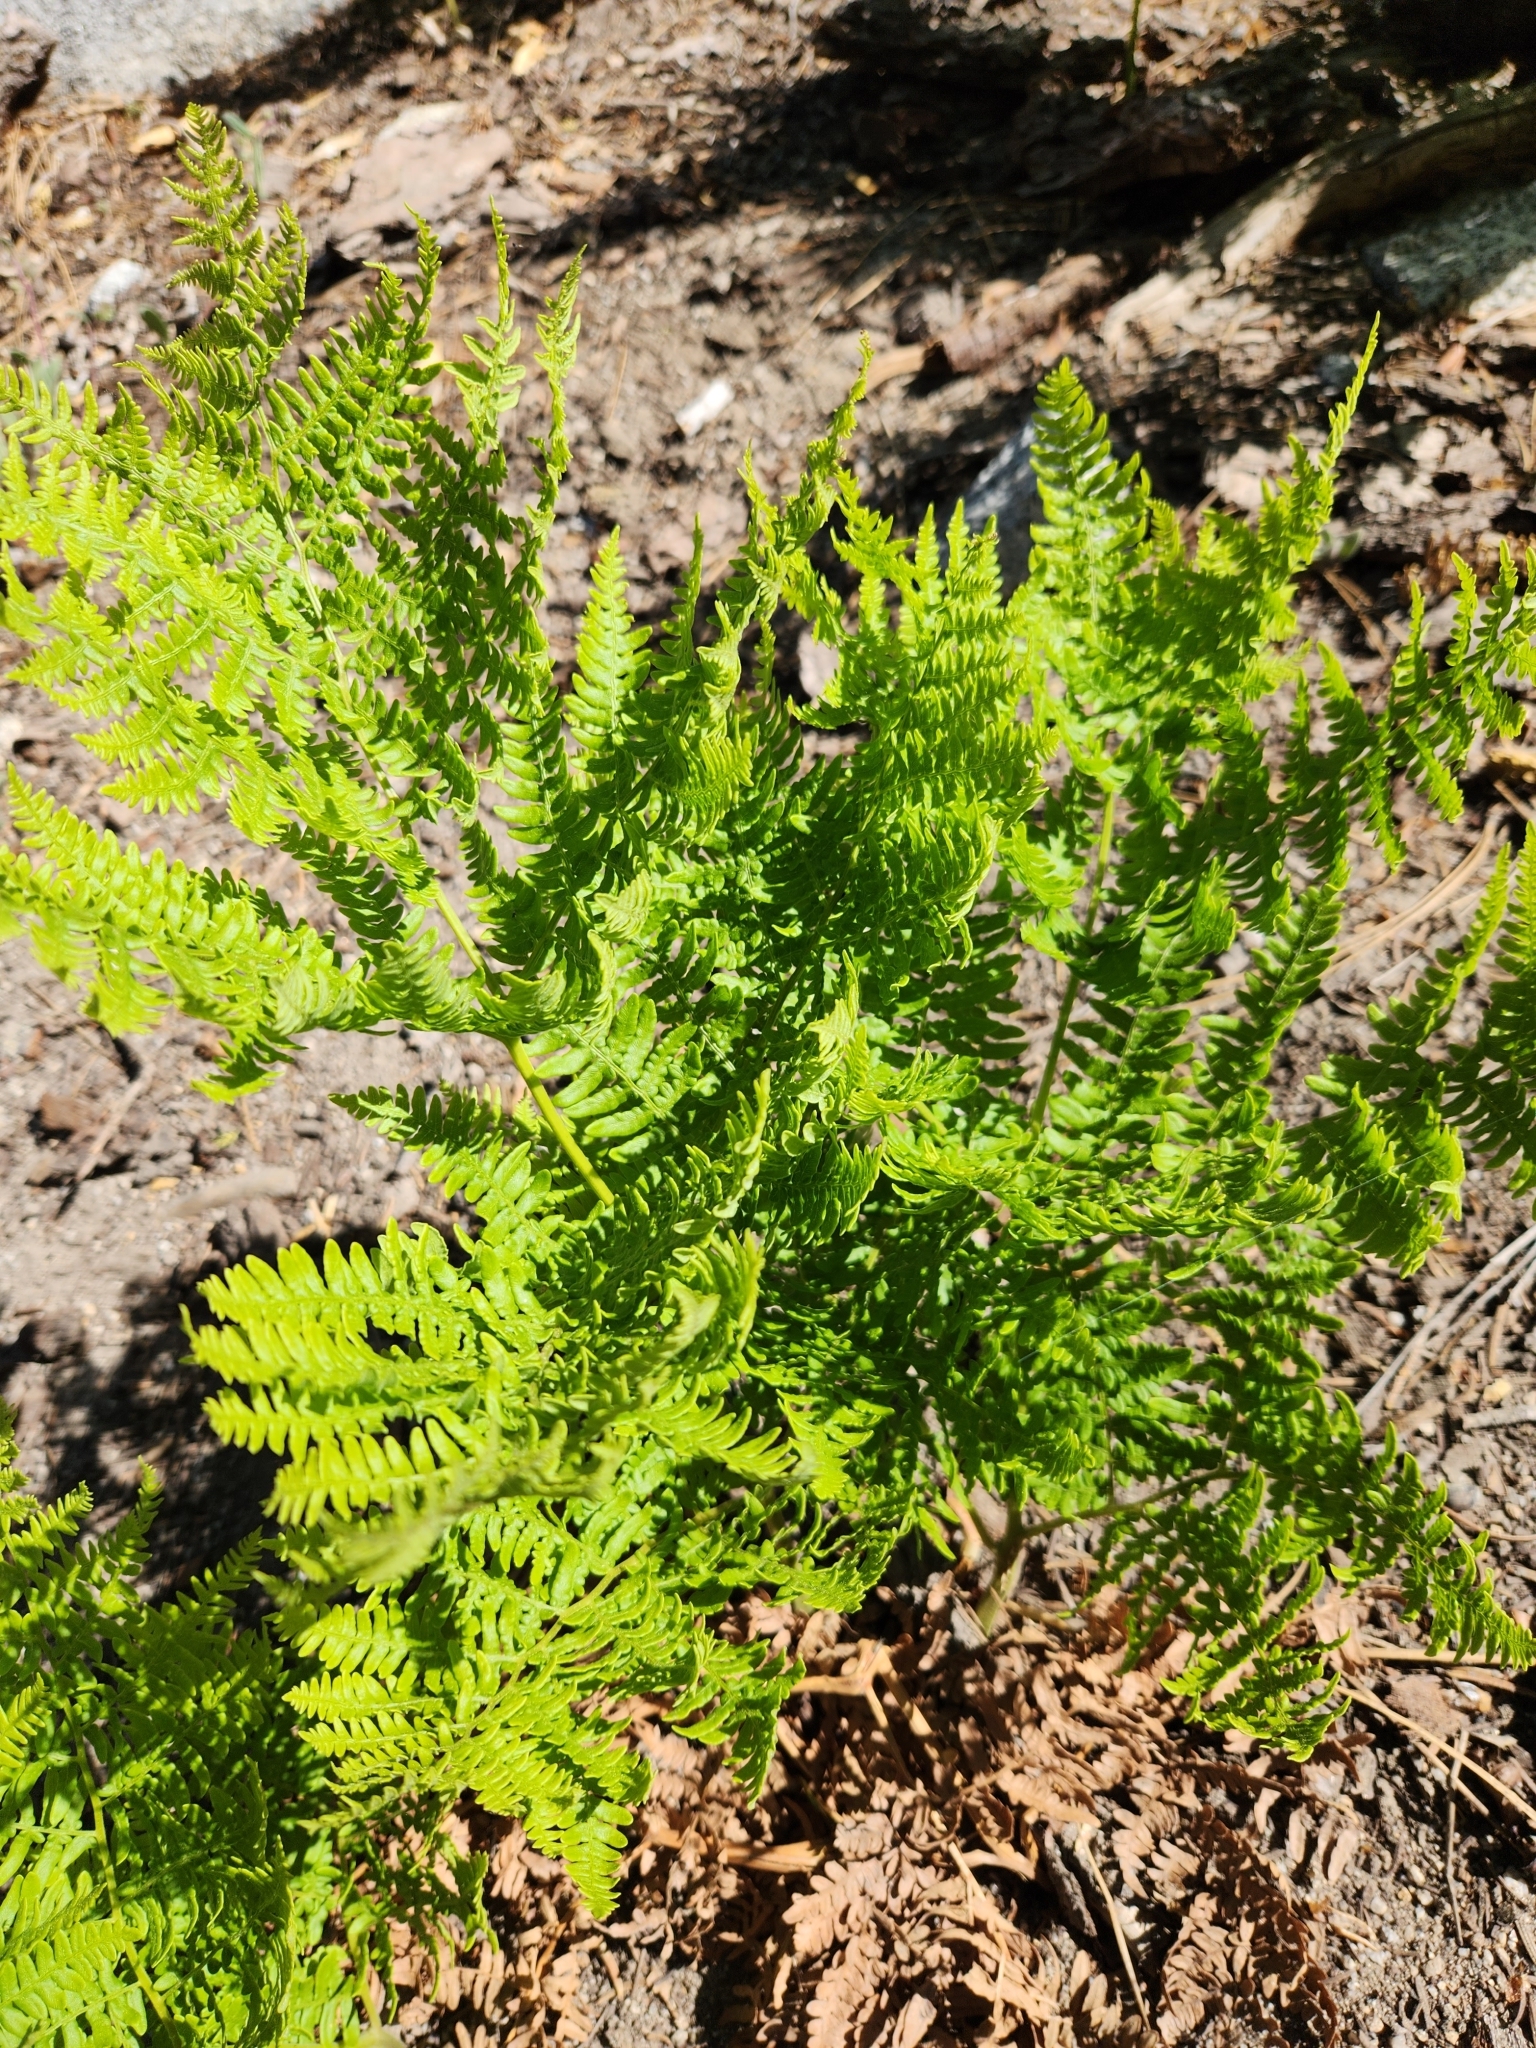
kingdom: Plantae
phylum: Tracheophyta
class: Polypodiopsida
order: Polypodiales
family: Dennstaedtiaceae
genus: Pteridium
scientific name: Pteridium aquilinum
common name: Bracken
